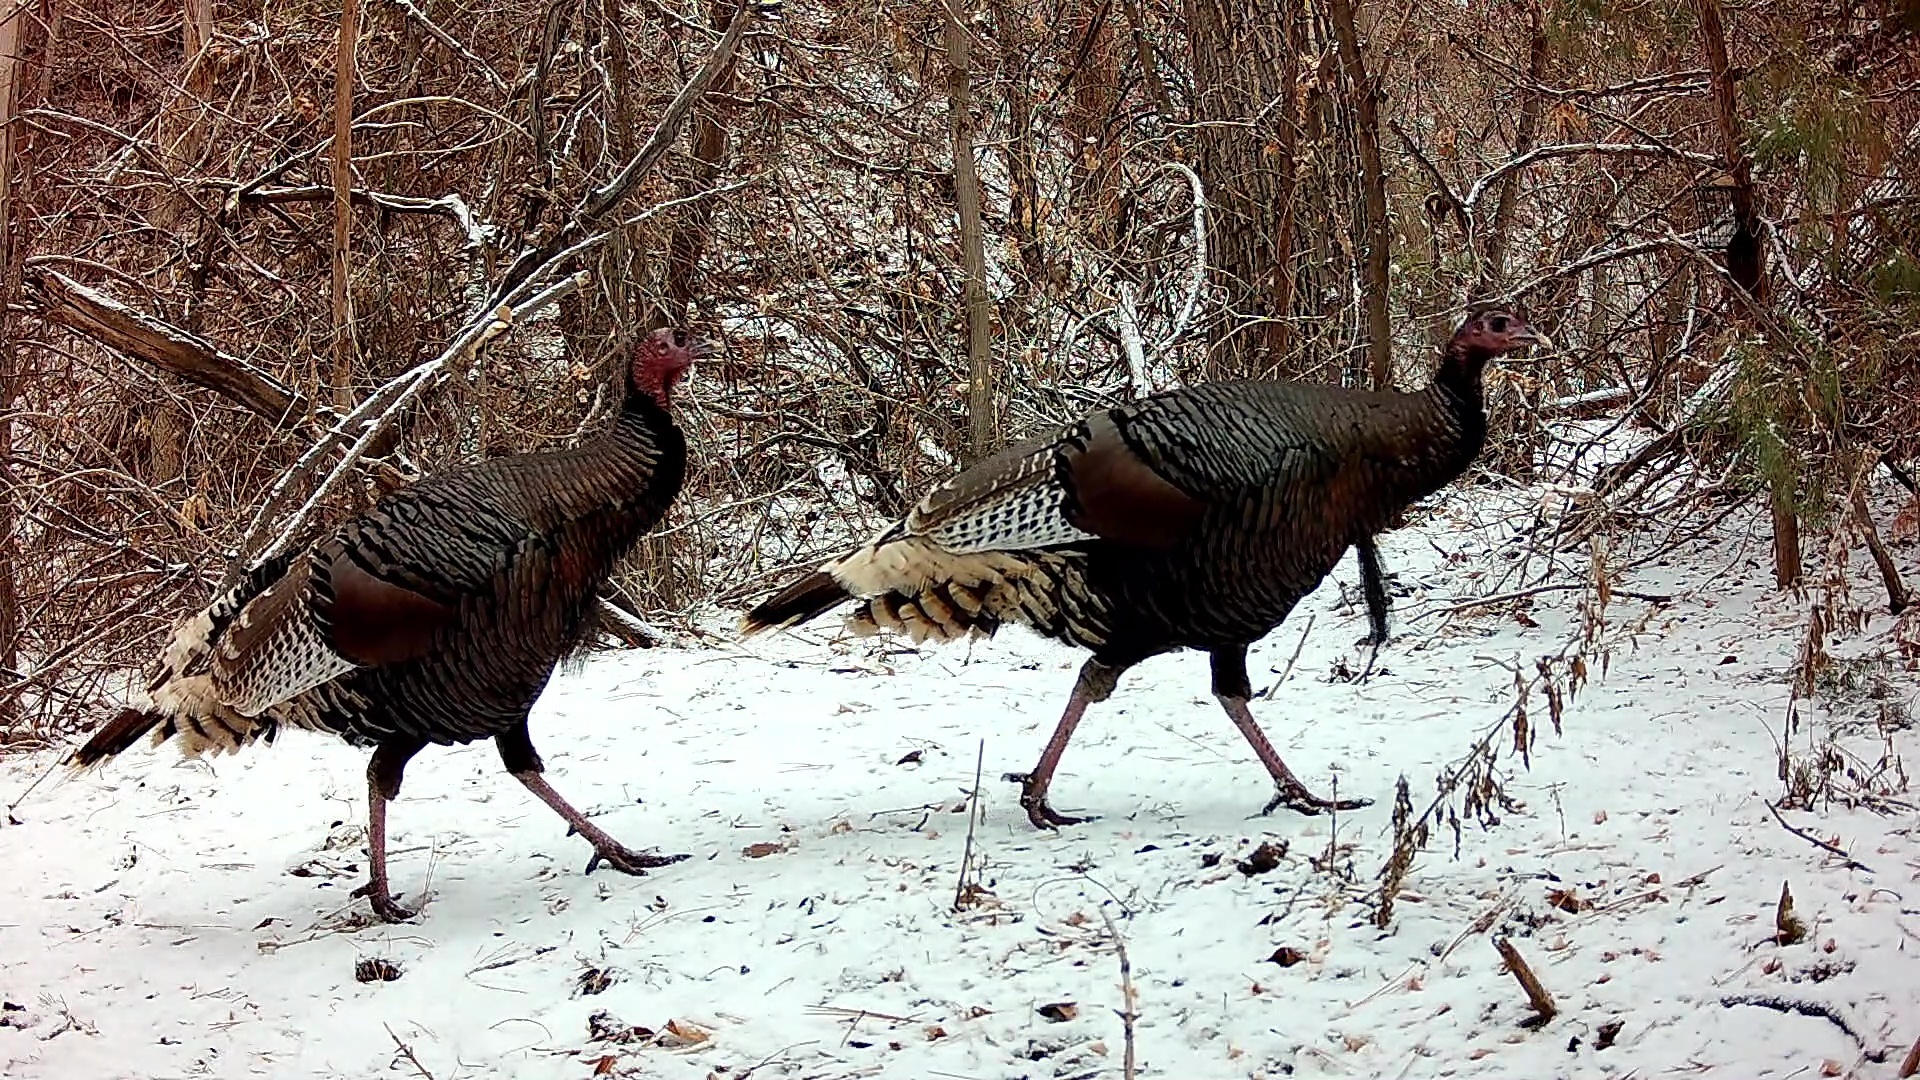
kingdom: Animalia
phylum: Chordata
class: Aves
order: Galliformes
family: Phasianidae
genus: Meleagris
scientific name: Meleagris gallopavo
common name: Wild turkey
